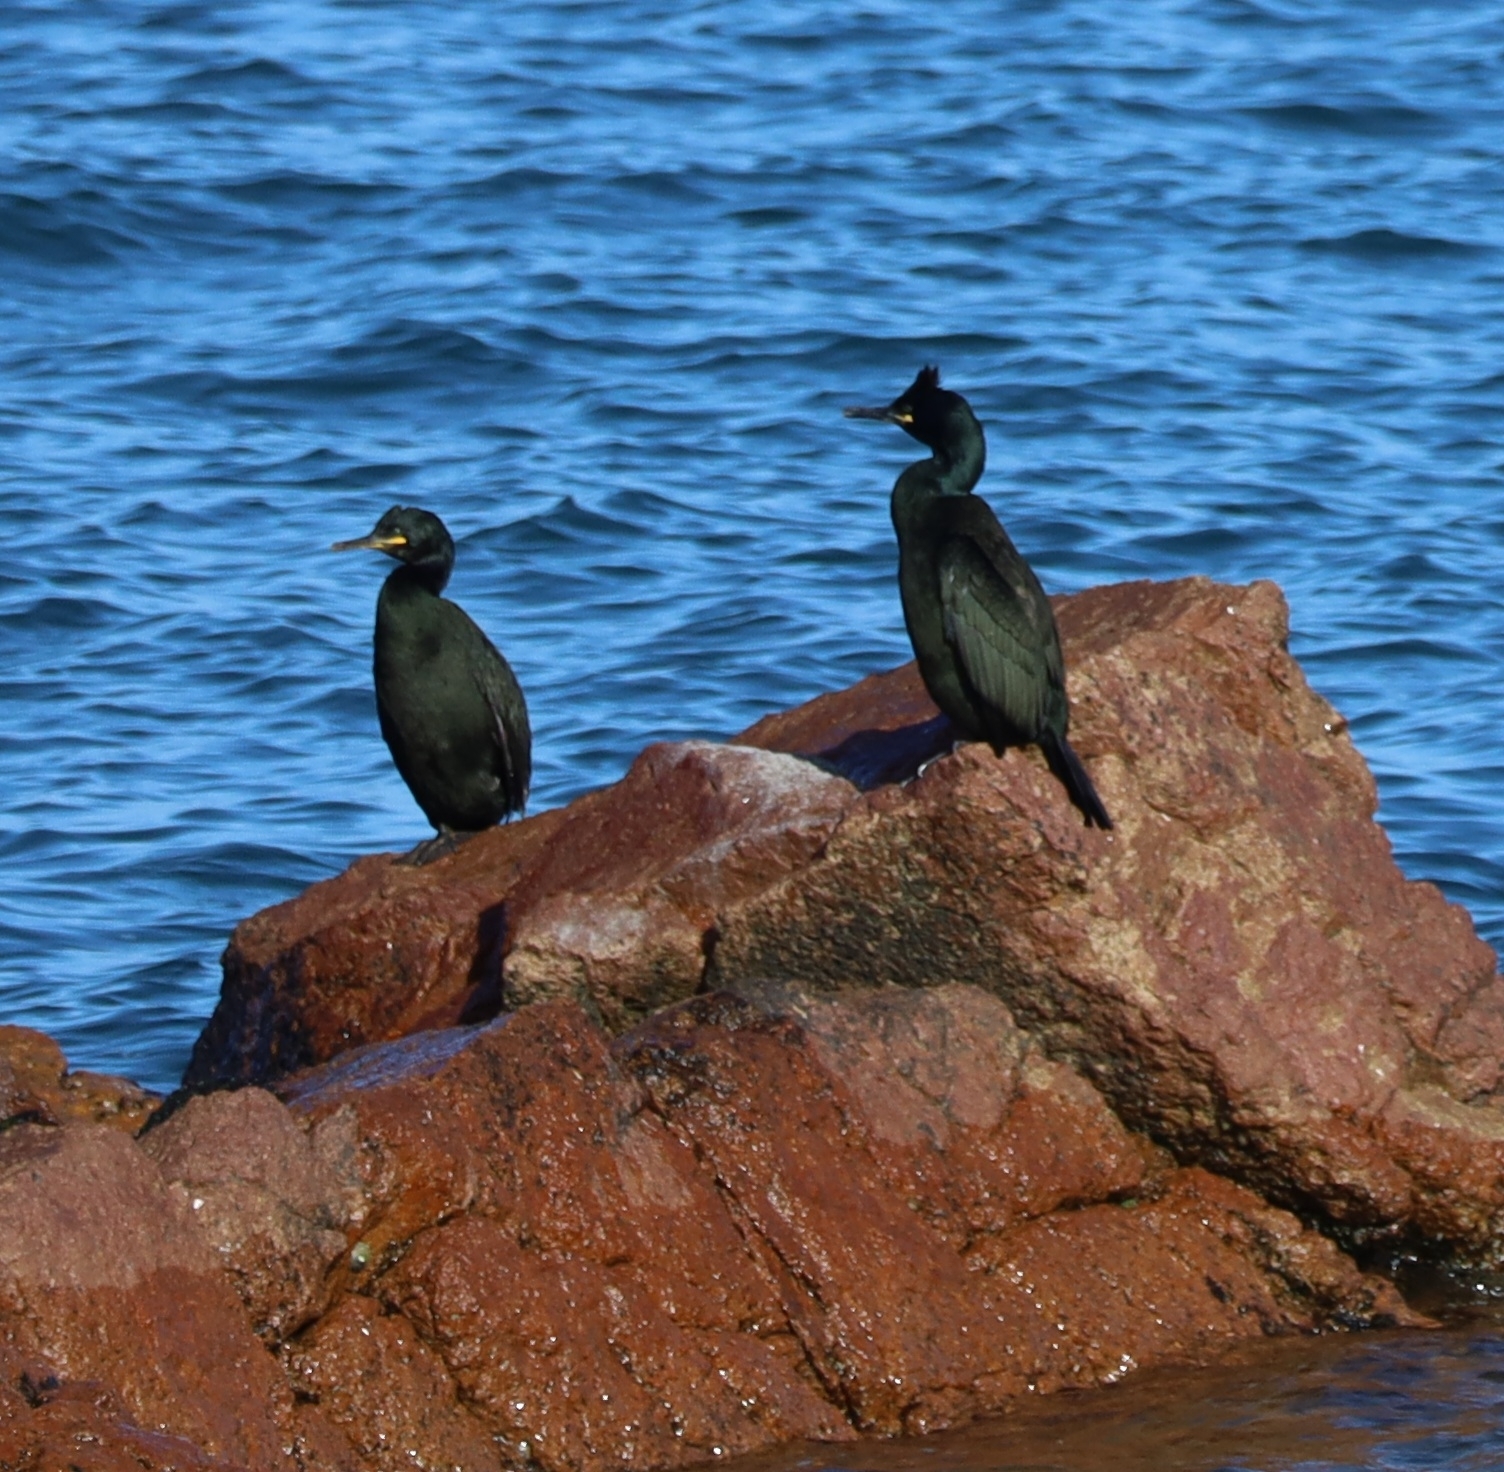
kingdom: Animalia
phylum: Chordata
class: Aves
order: Suliformes
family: Phalacrocoracidae
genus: Phalacrocorax
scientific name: Phalacrocorax aristotelis
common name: European shag
